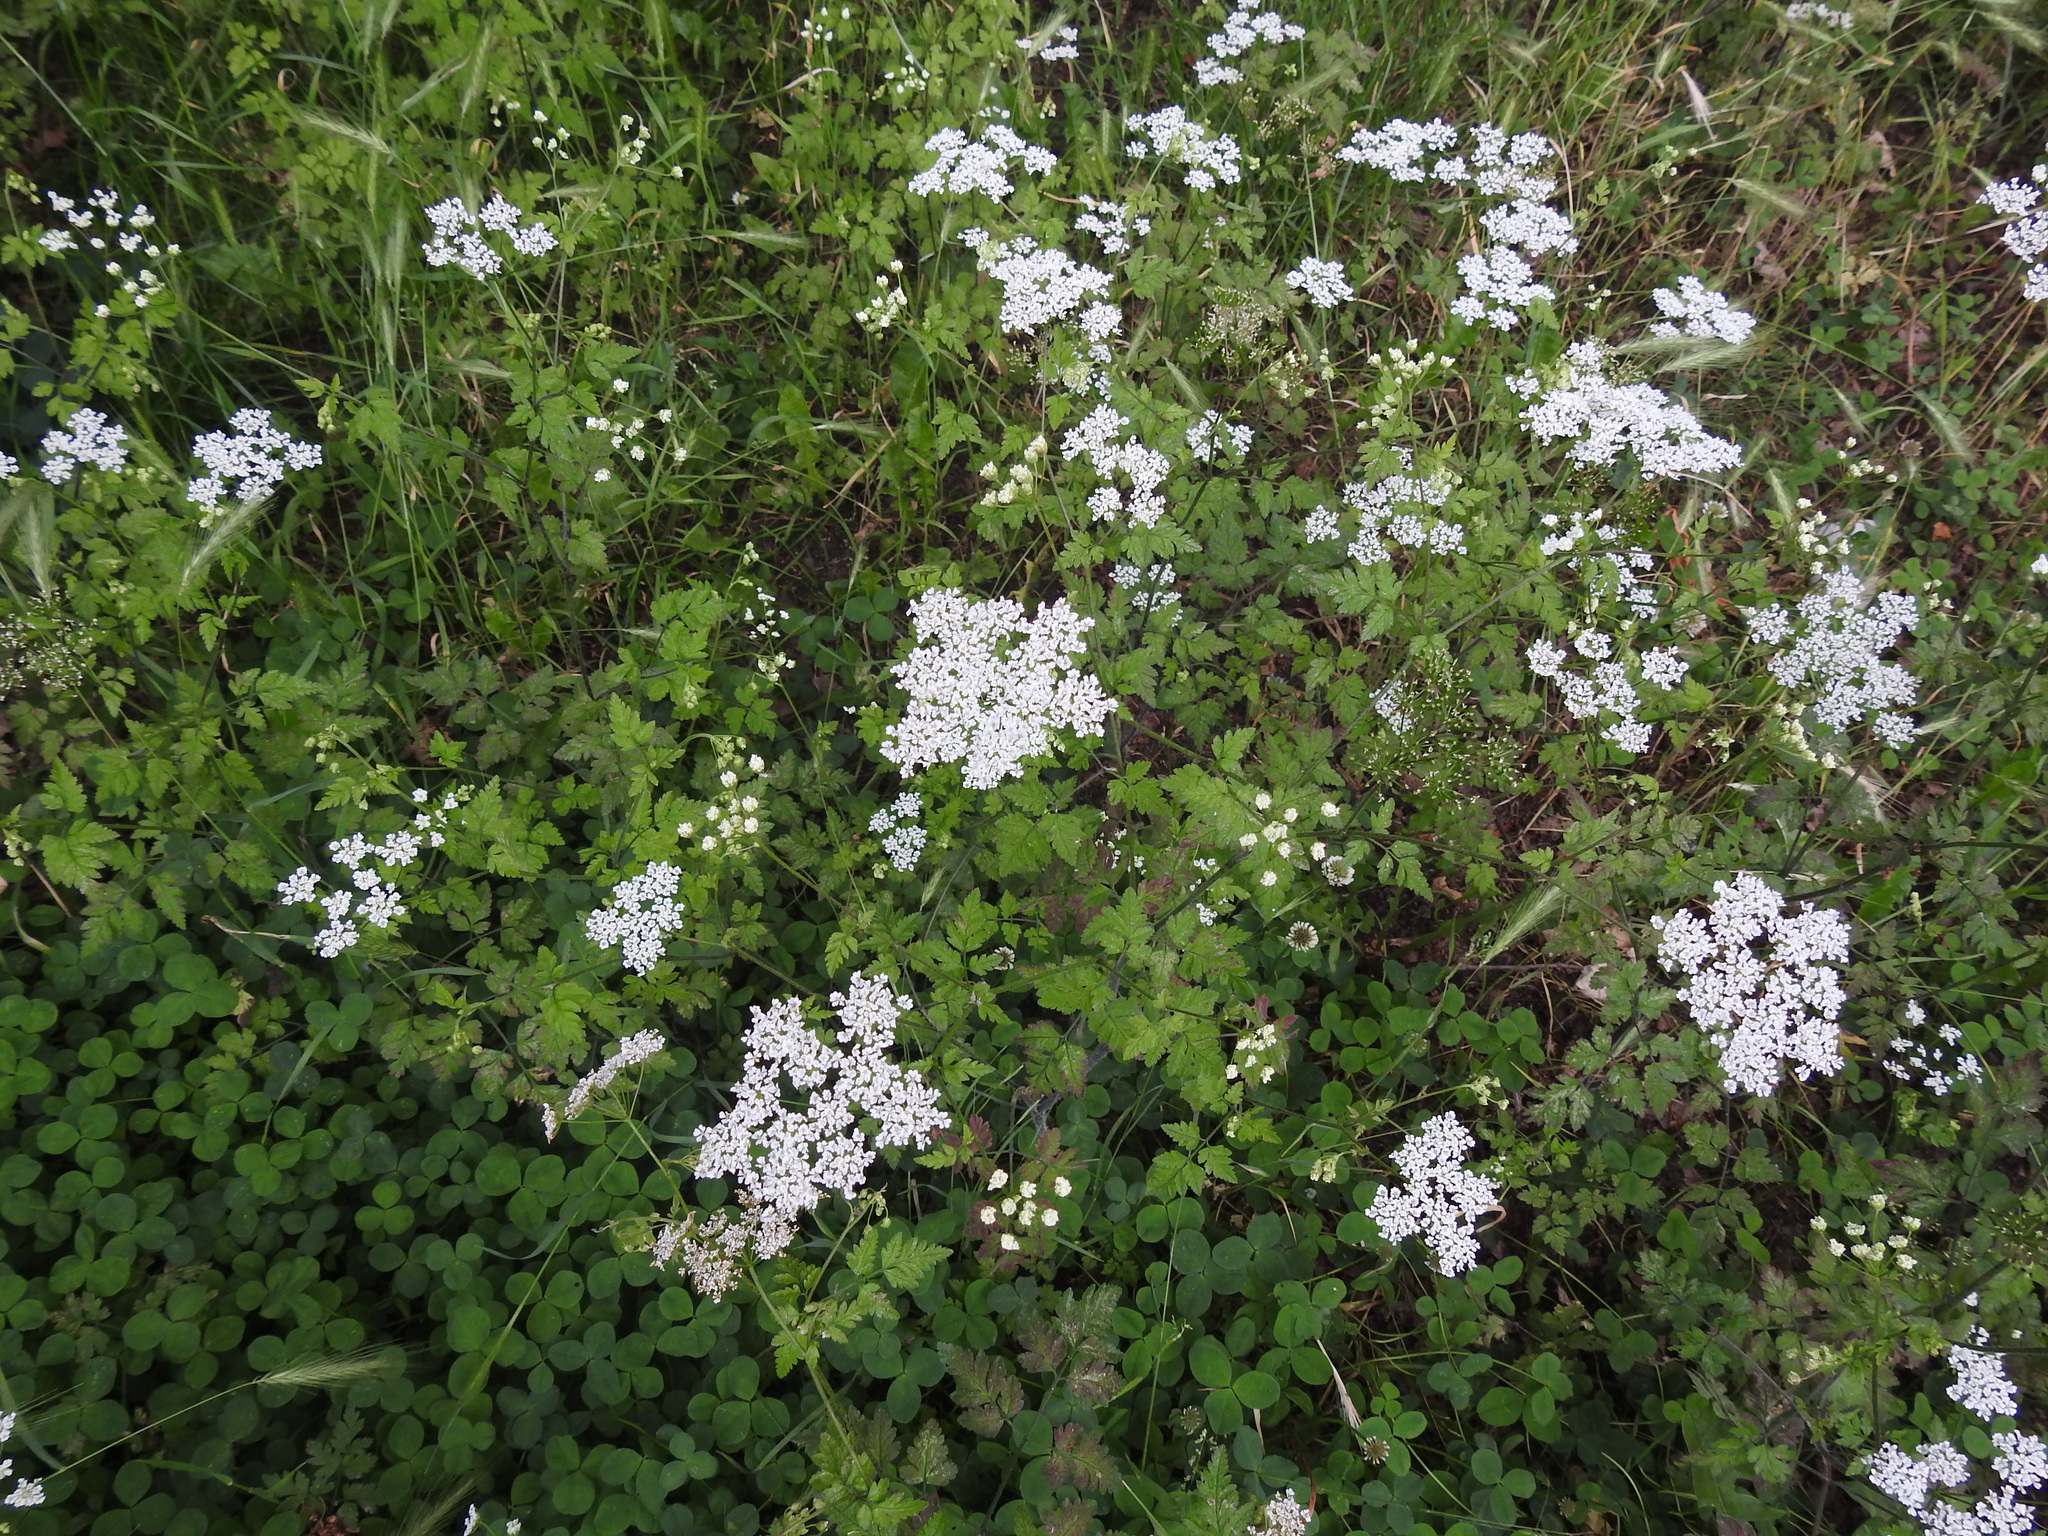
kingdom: Plantae
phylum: Tracheophyta
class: Magnoliopsida
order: Apiales
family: Apiaceae
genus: Chaerophyllum
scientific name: Chaerophyllum temulum
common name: Rough chervil
